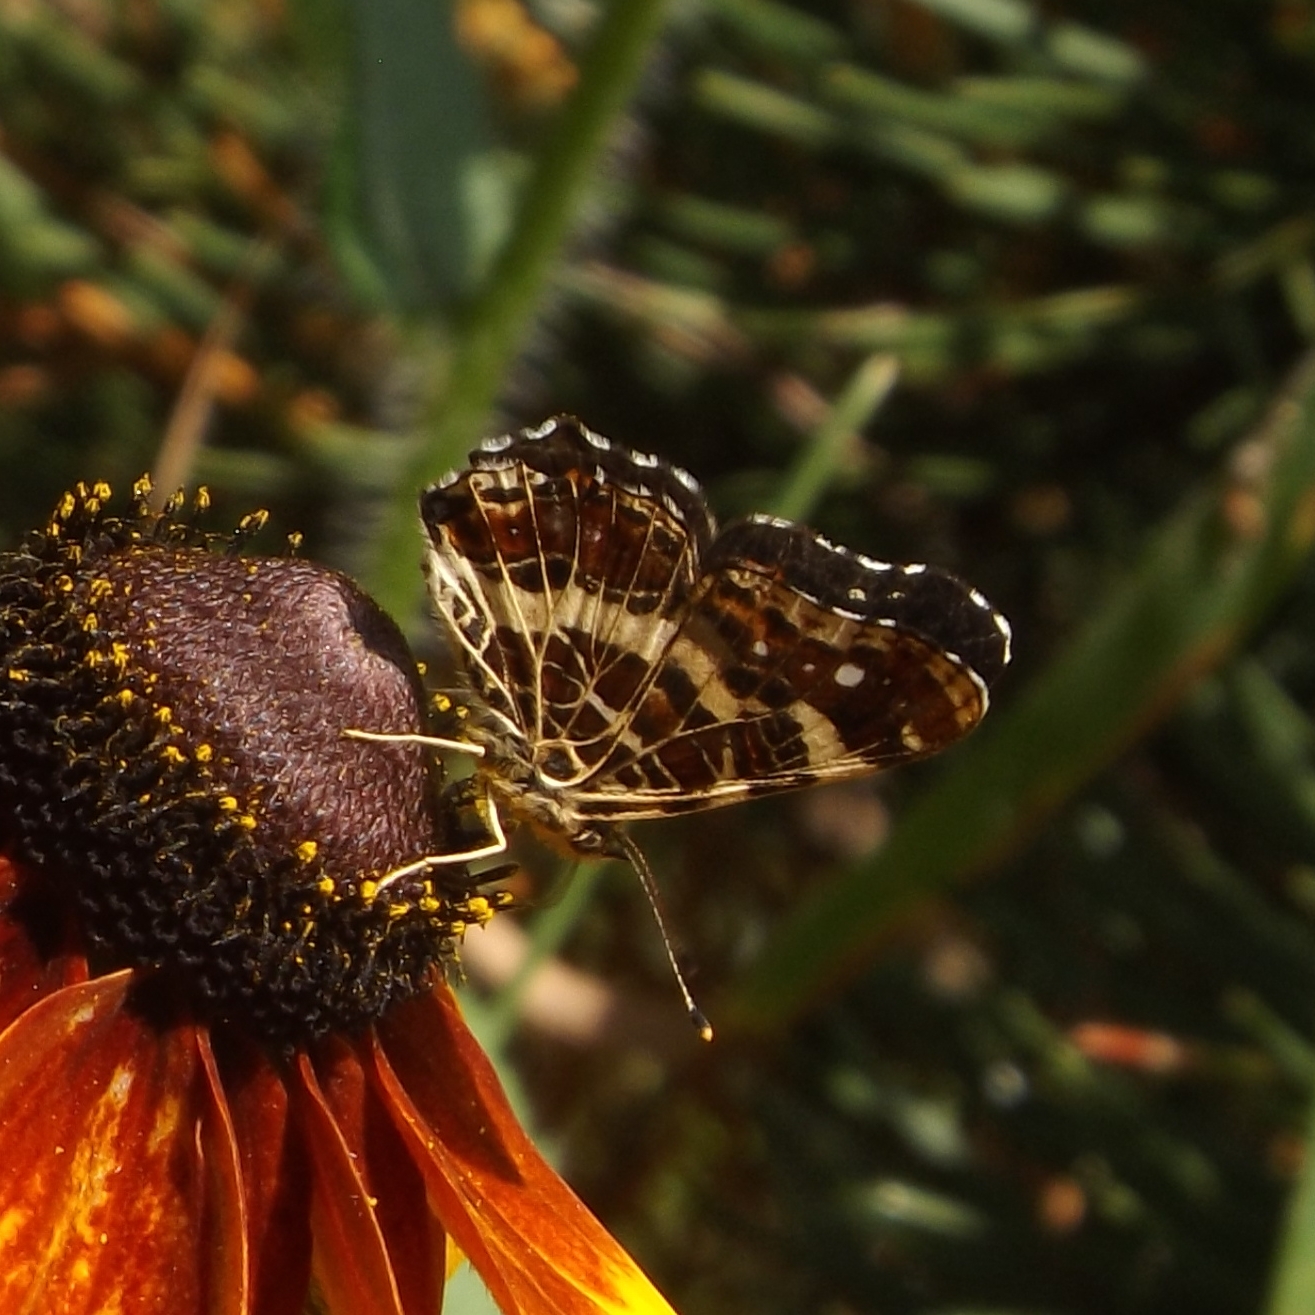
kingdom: Animalia
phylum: Arthropoda
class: Insecta
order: Lepidoptera
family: Nymphalidae
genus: Araschnia
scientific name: Araschnia levana
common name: Map butterfly
